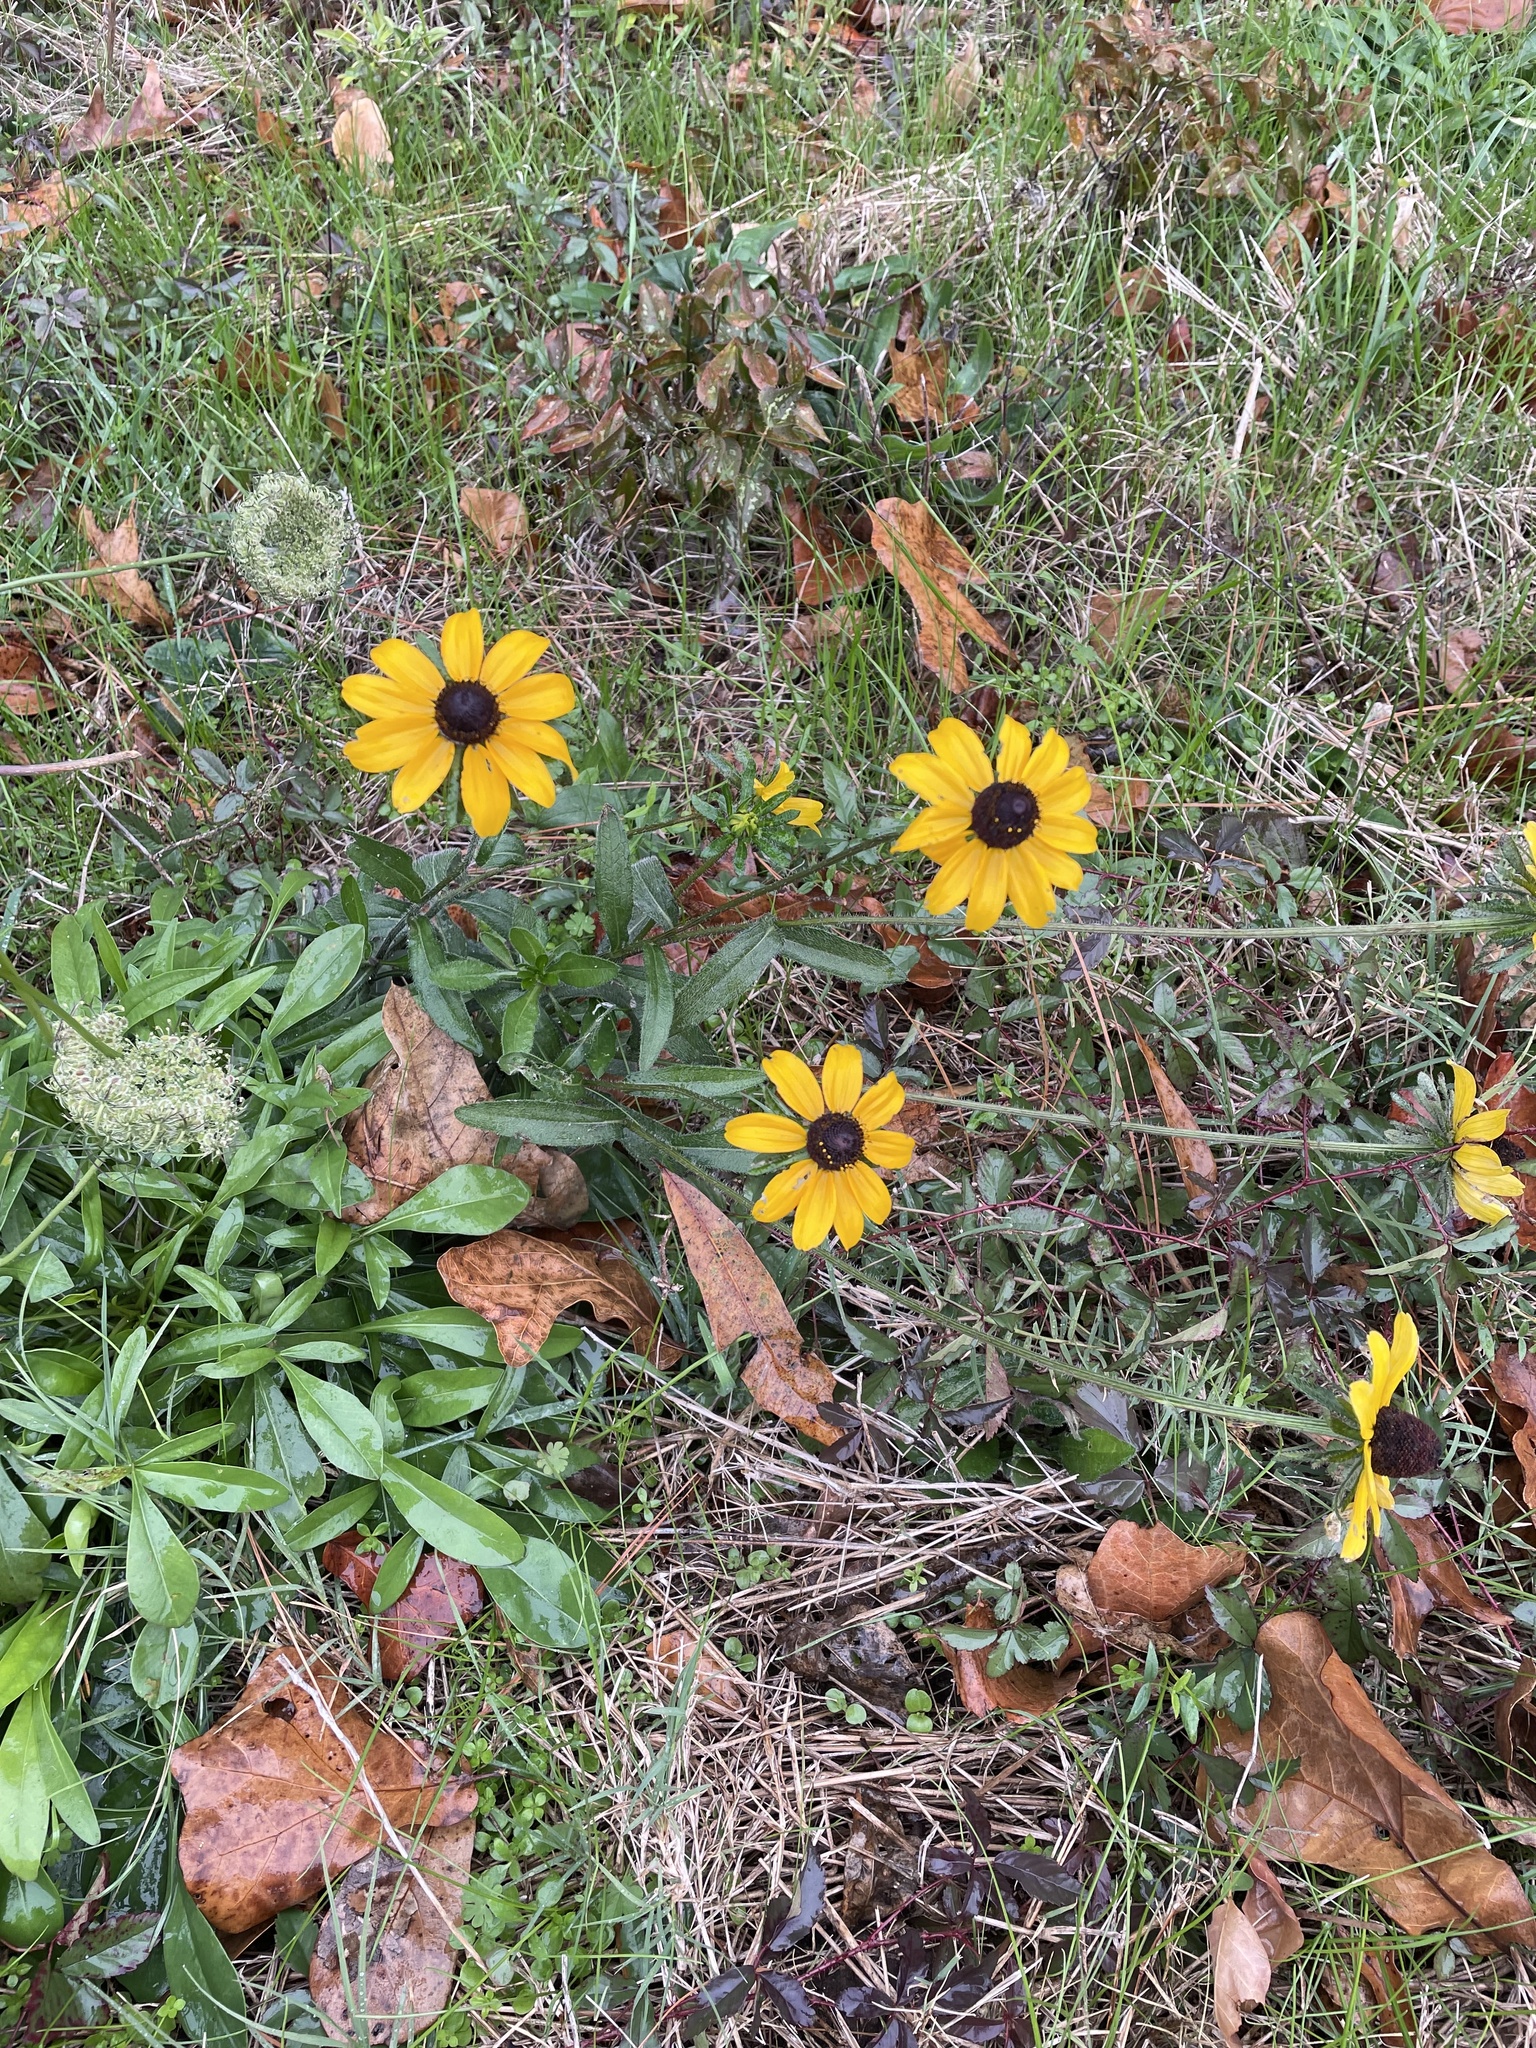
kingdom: Plantae
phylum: Tracheophyta
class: Magnoliopsida
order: Asterales
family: Asteraceae
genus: Rudbeckia
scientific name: Rudbeckia hirta
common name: Black-eyed-susan
